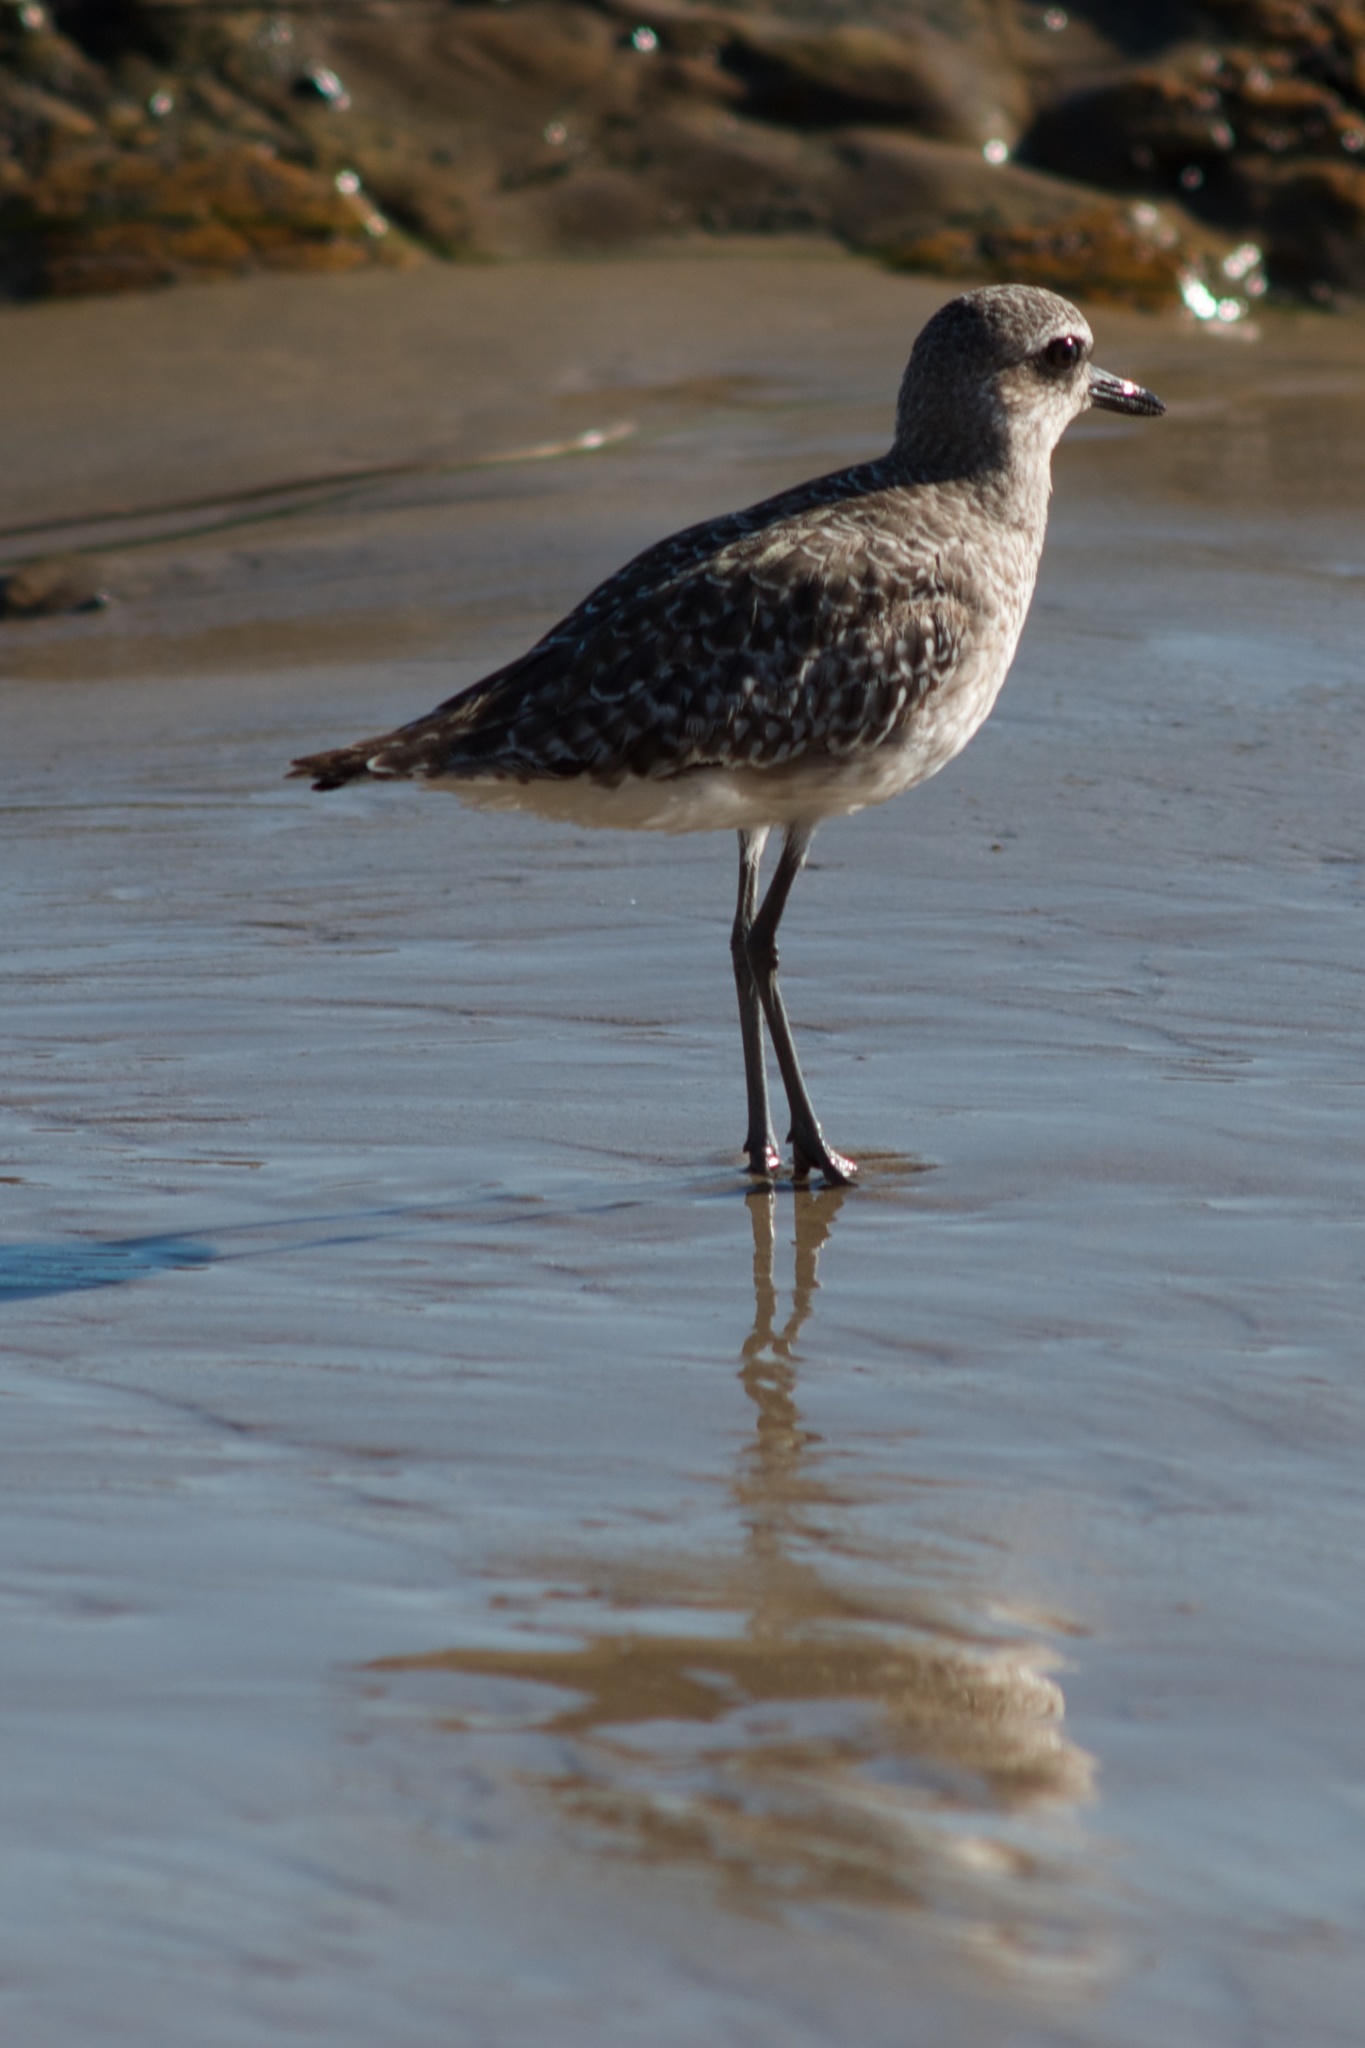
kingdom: Animalia
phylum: Chordata
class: Aves
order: Charadriiformes
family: Charadriidae
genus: Pluvialis
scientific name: Pluvialis squatarola
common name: Grey plover
